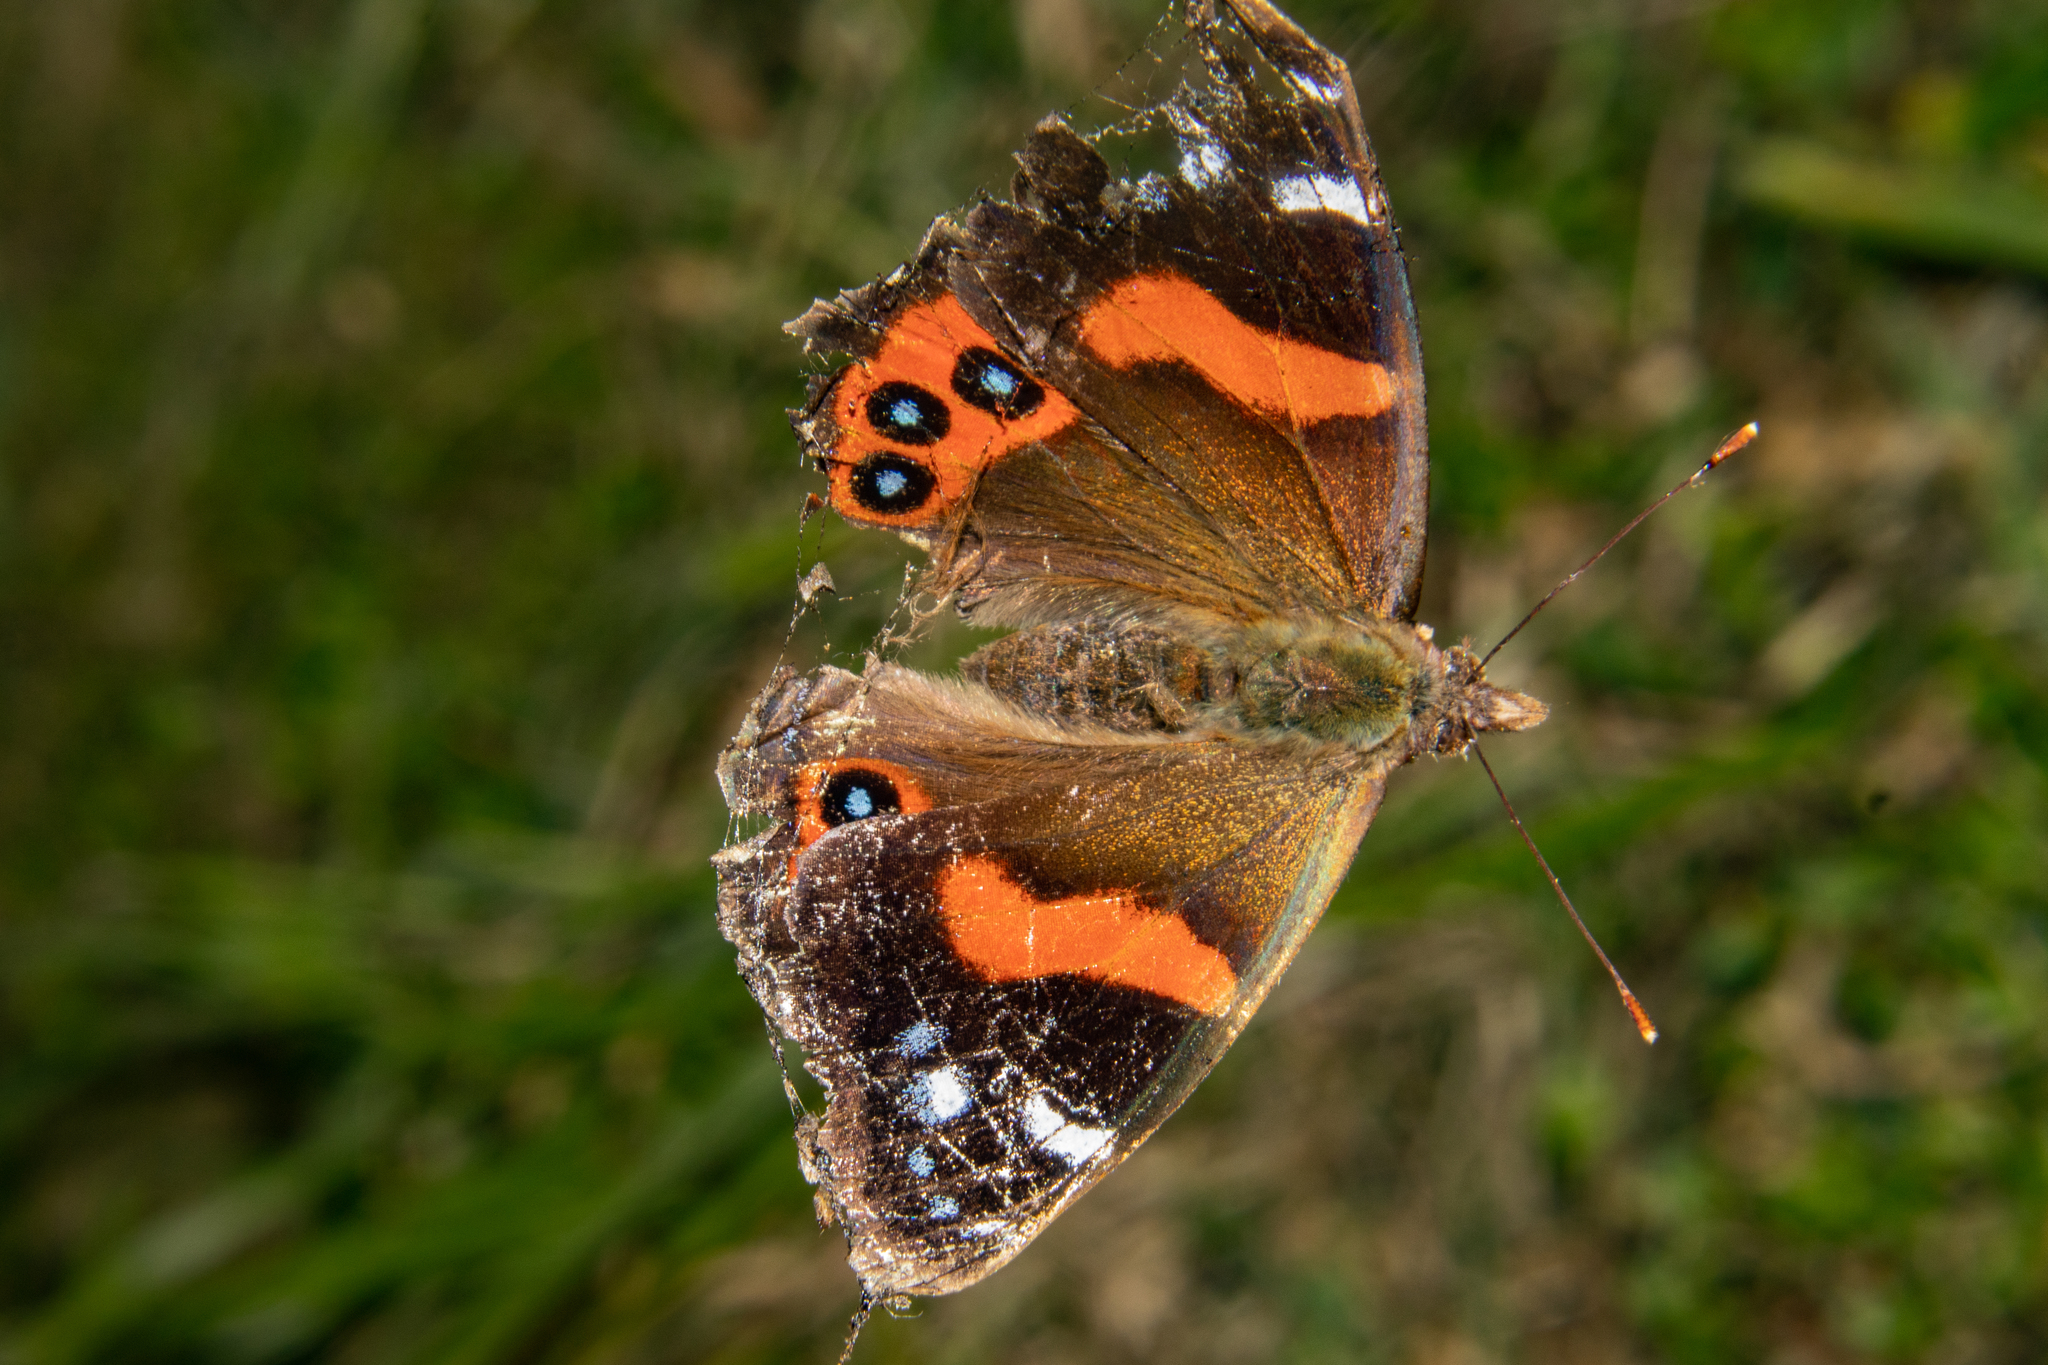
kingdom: Animalia
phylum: Arthropoda
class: Insecta
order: Lepidoptera
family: Nymphalidae
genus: Vanessa
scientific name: Vanessa gonerilla
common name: New zealand red admiral
